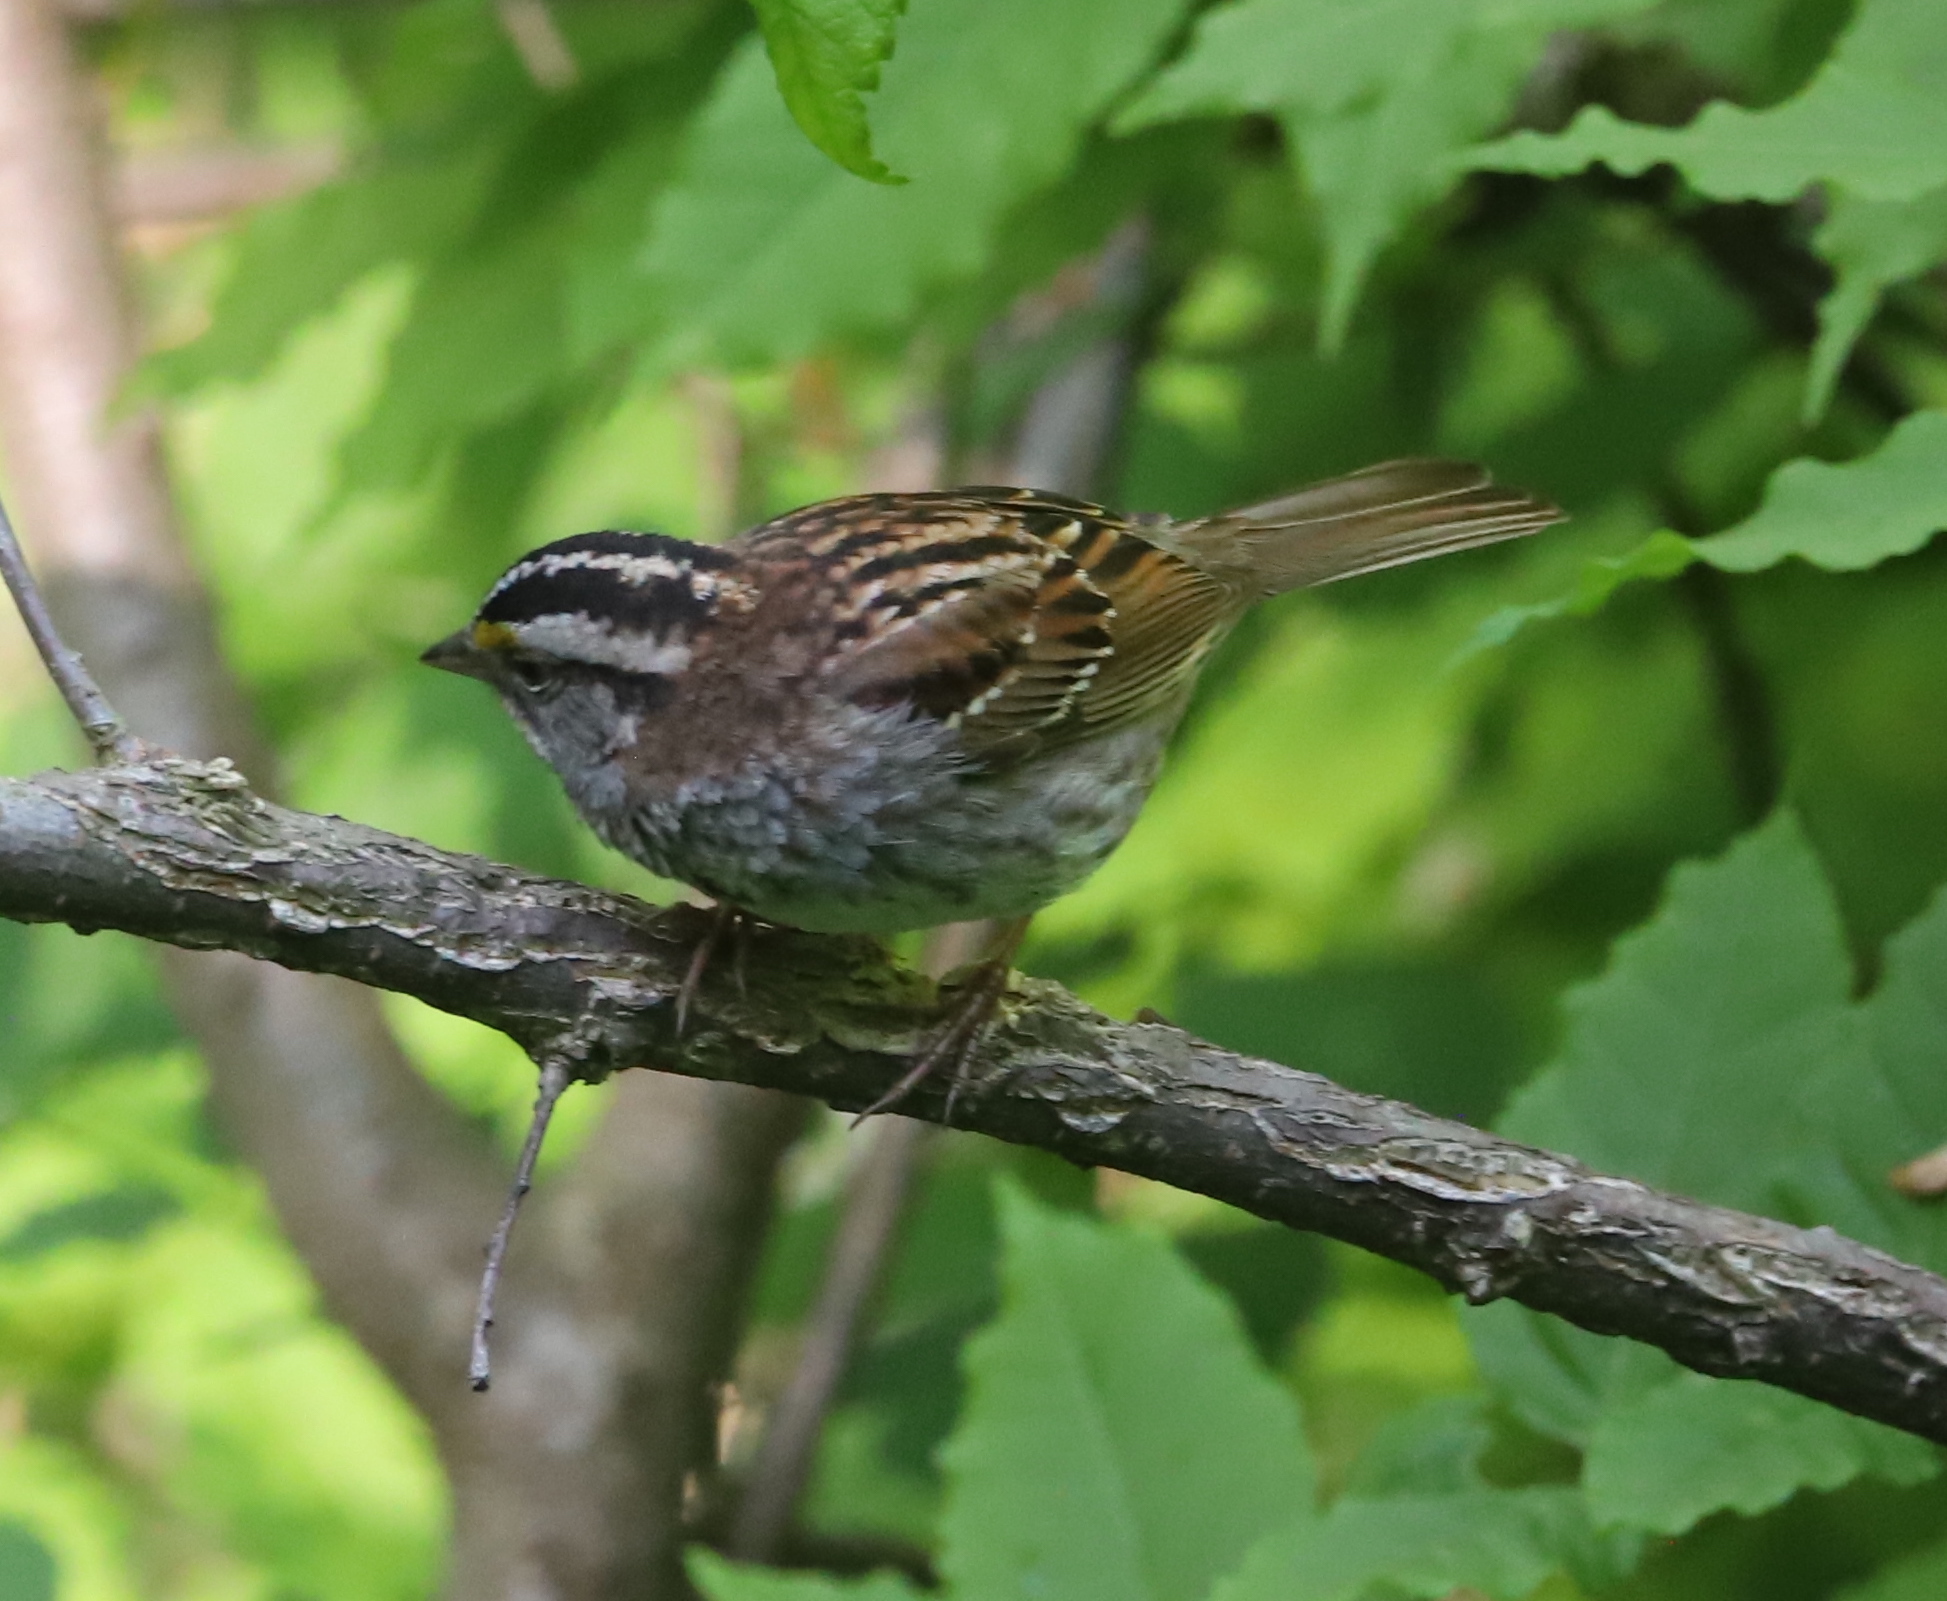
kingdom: Animalia
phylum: Chordata
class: Aves
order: Passeriformes
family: Passerellidae
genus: Zonotrichia
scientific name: Zonotrichia albicollis
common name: White-throated sparrow
